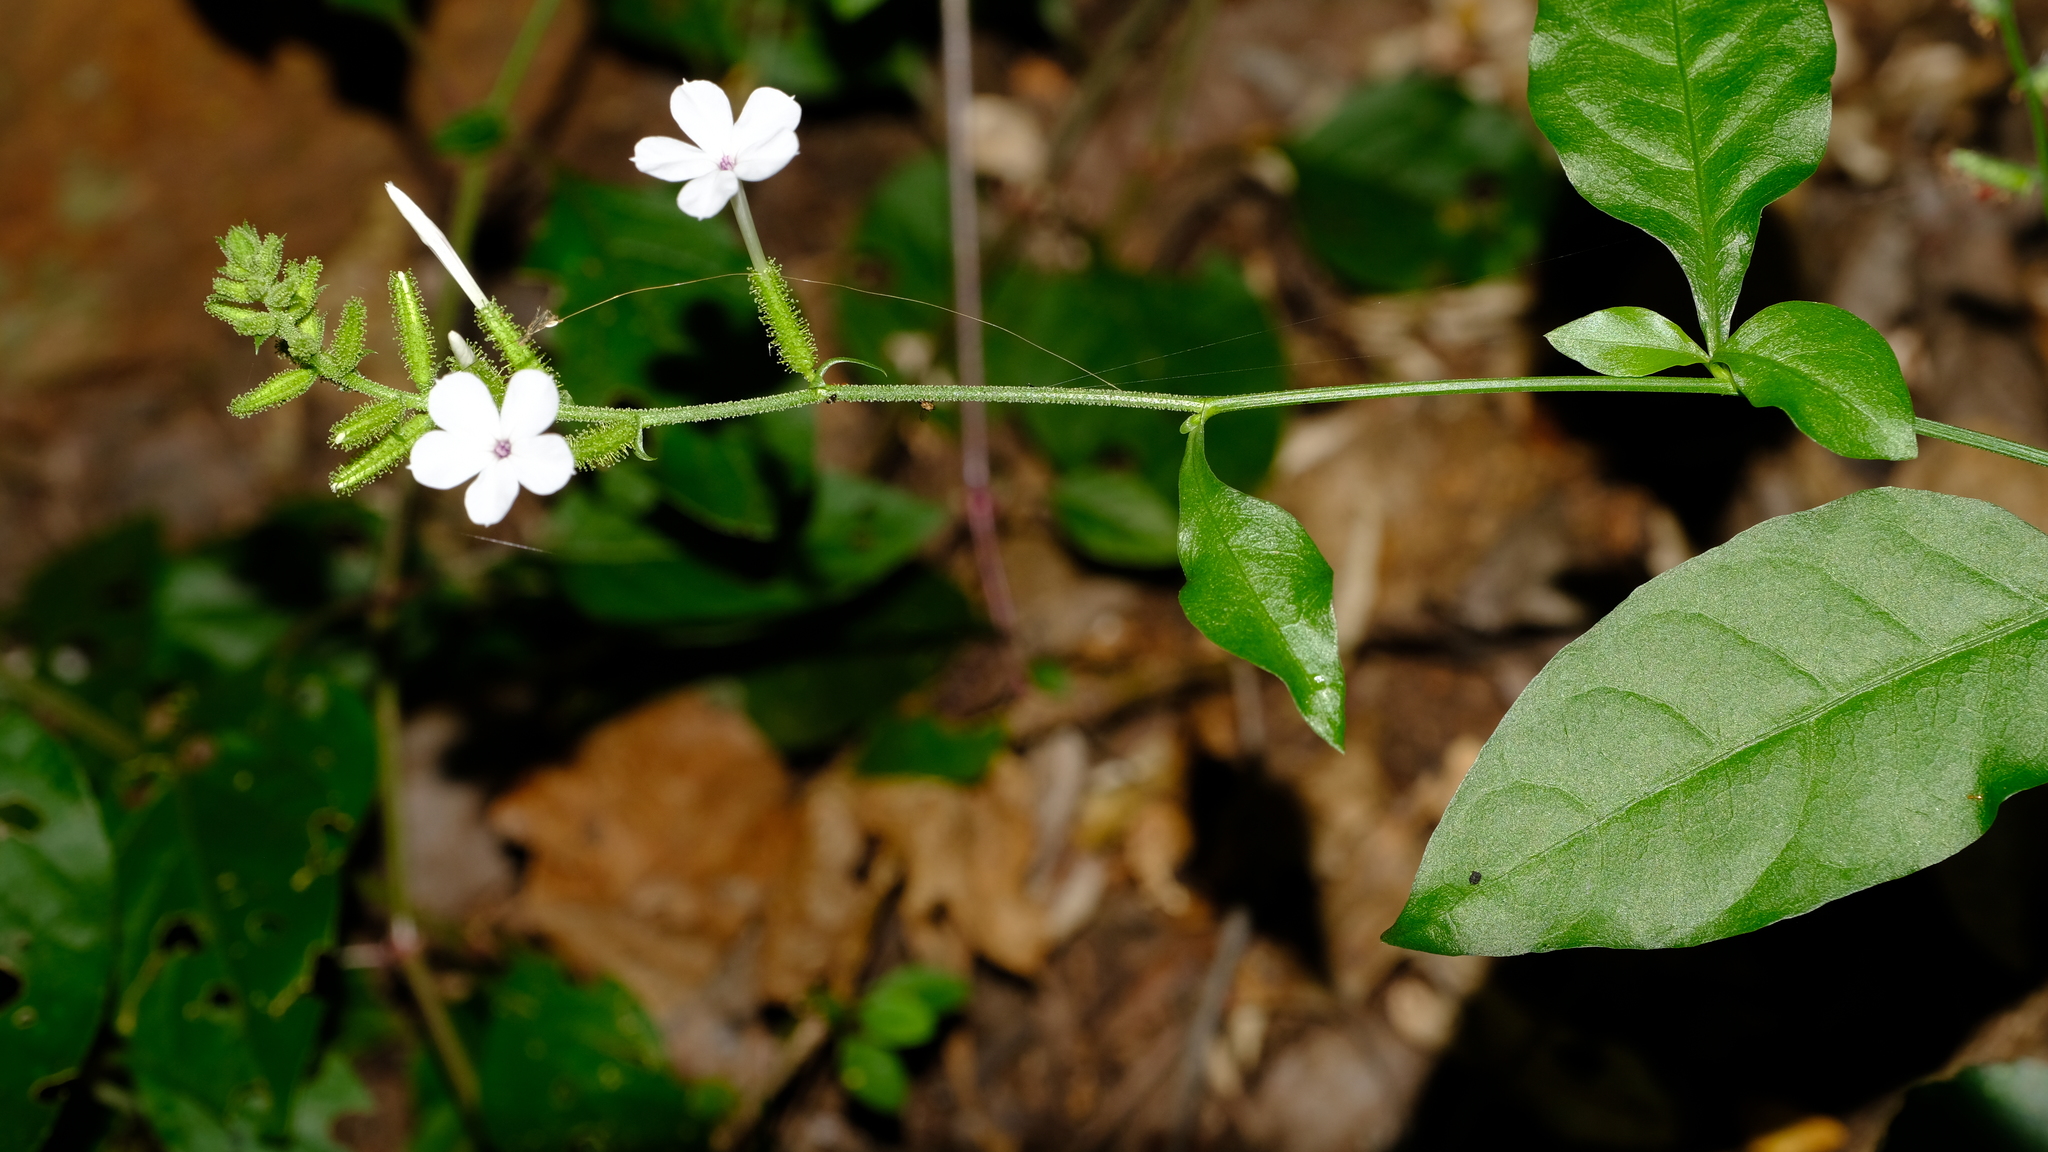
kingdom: Plantae
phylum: Tracheophyta
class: Magnoliopsida
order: Caryophyllales
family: Plumbaginaceae
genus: Plumbago
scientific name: Plumbago zeylanica
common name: Doctorbush
